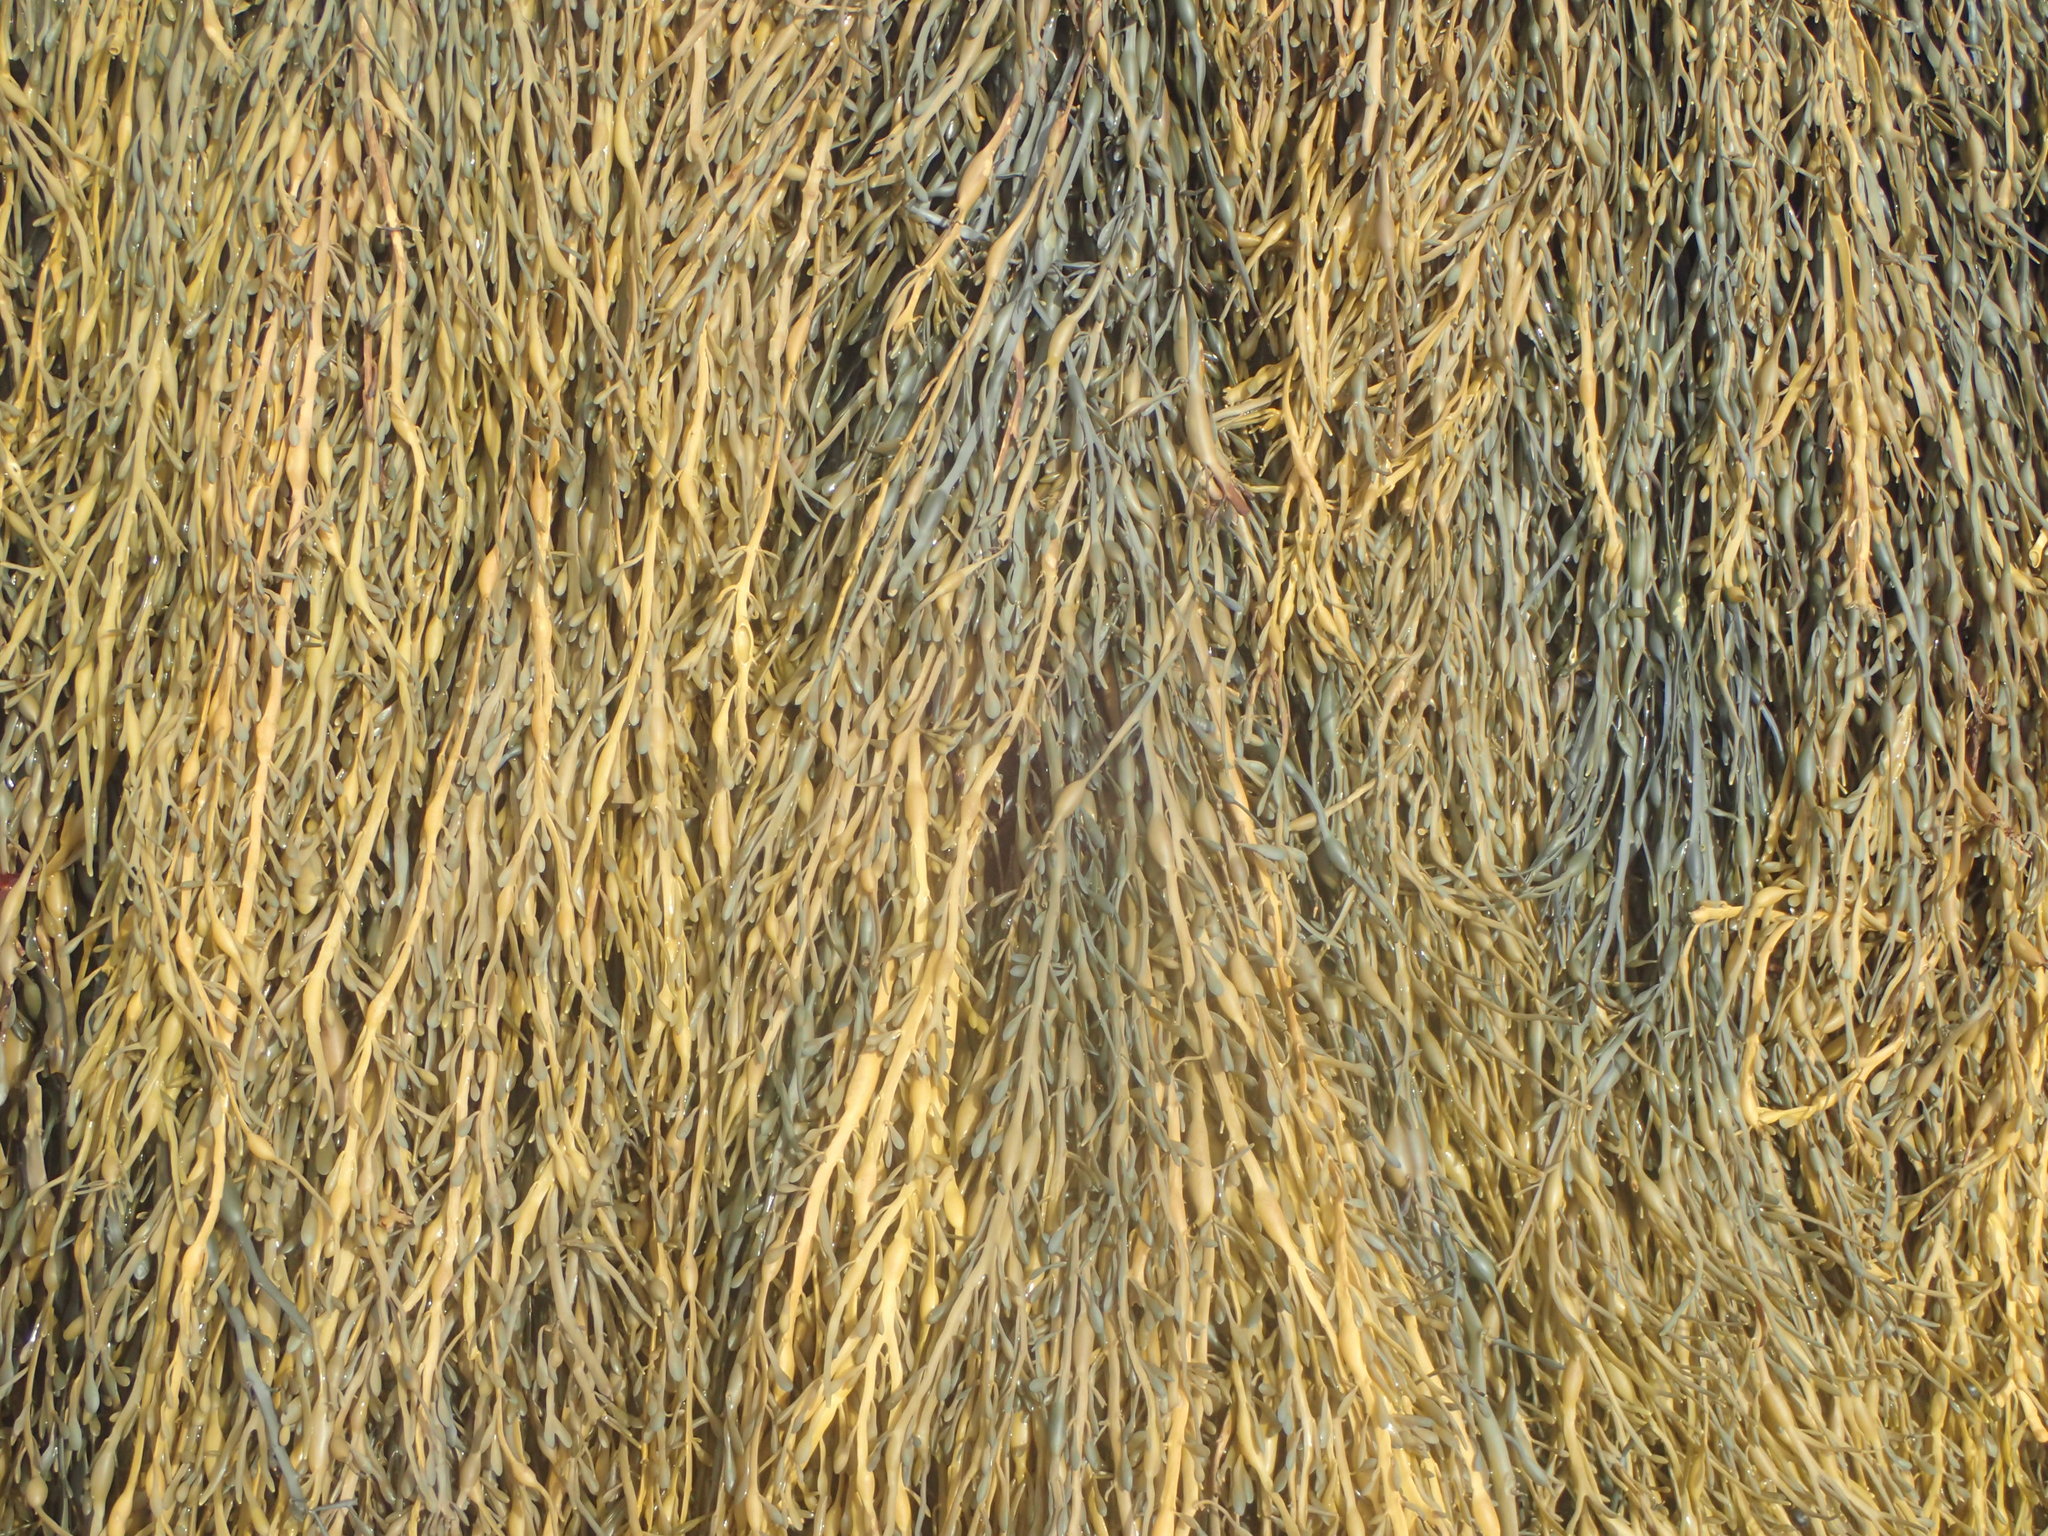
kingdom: Chromista
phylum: Ochrophyta
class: Phaeophyceae
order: Fucales
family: Fucaceae
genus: Ascophyllum
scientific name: Ascophyllum nodosum
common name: Knotted wrack
